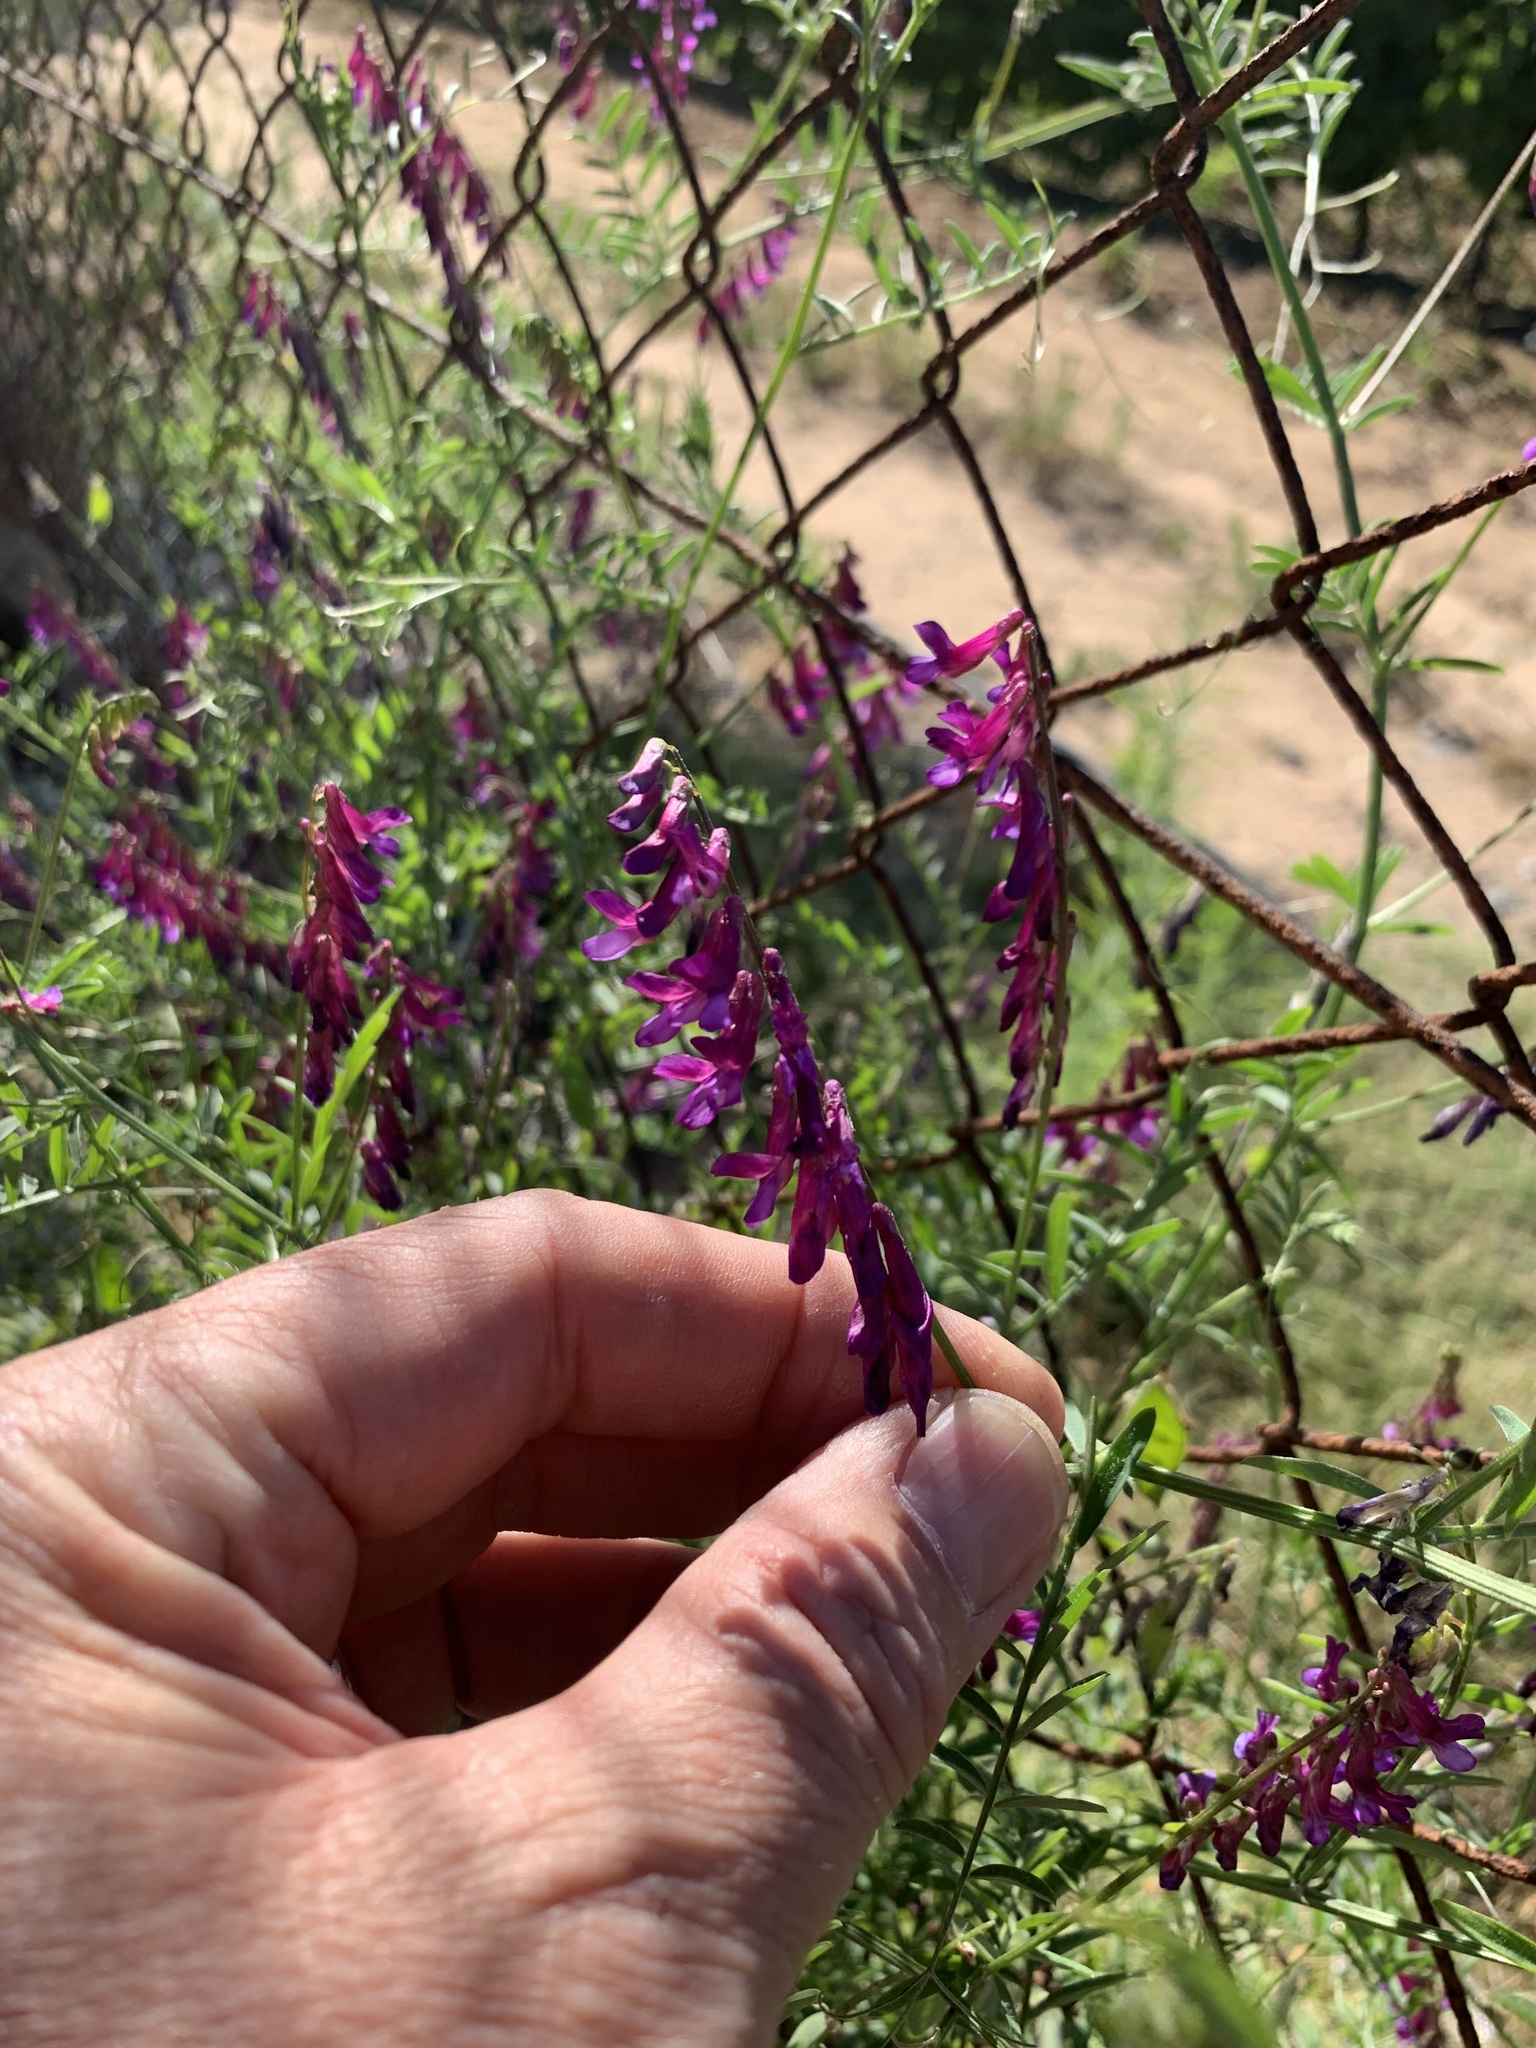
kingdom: Plantae
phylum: Tracheophyta
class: Magnoliopsida
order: Fabales
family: Fabaceae
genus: Vicia
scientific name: Vicia eriocarpa
